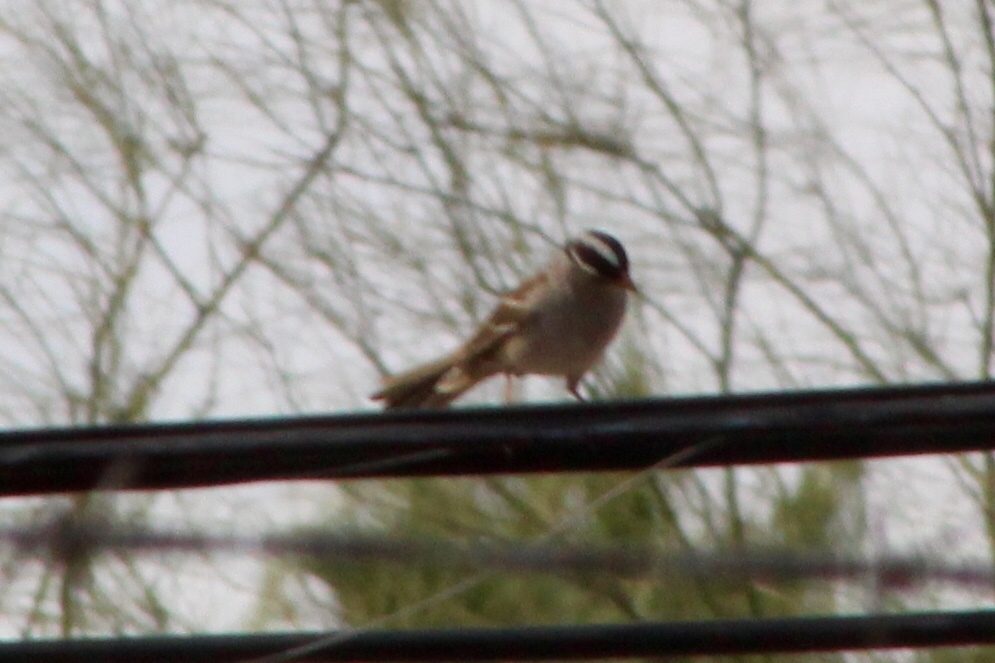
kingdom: Animalia
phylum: Chordata
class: Aves
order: Passeriformes
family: Passerellidae
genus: Zonotrichia
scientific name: Zonotrichia leucophrys
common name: White-crowned sparrow
